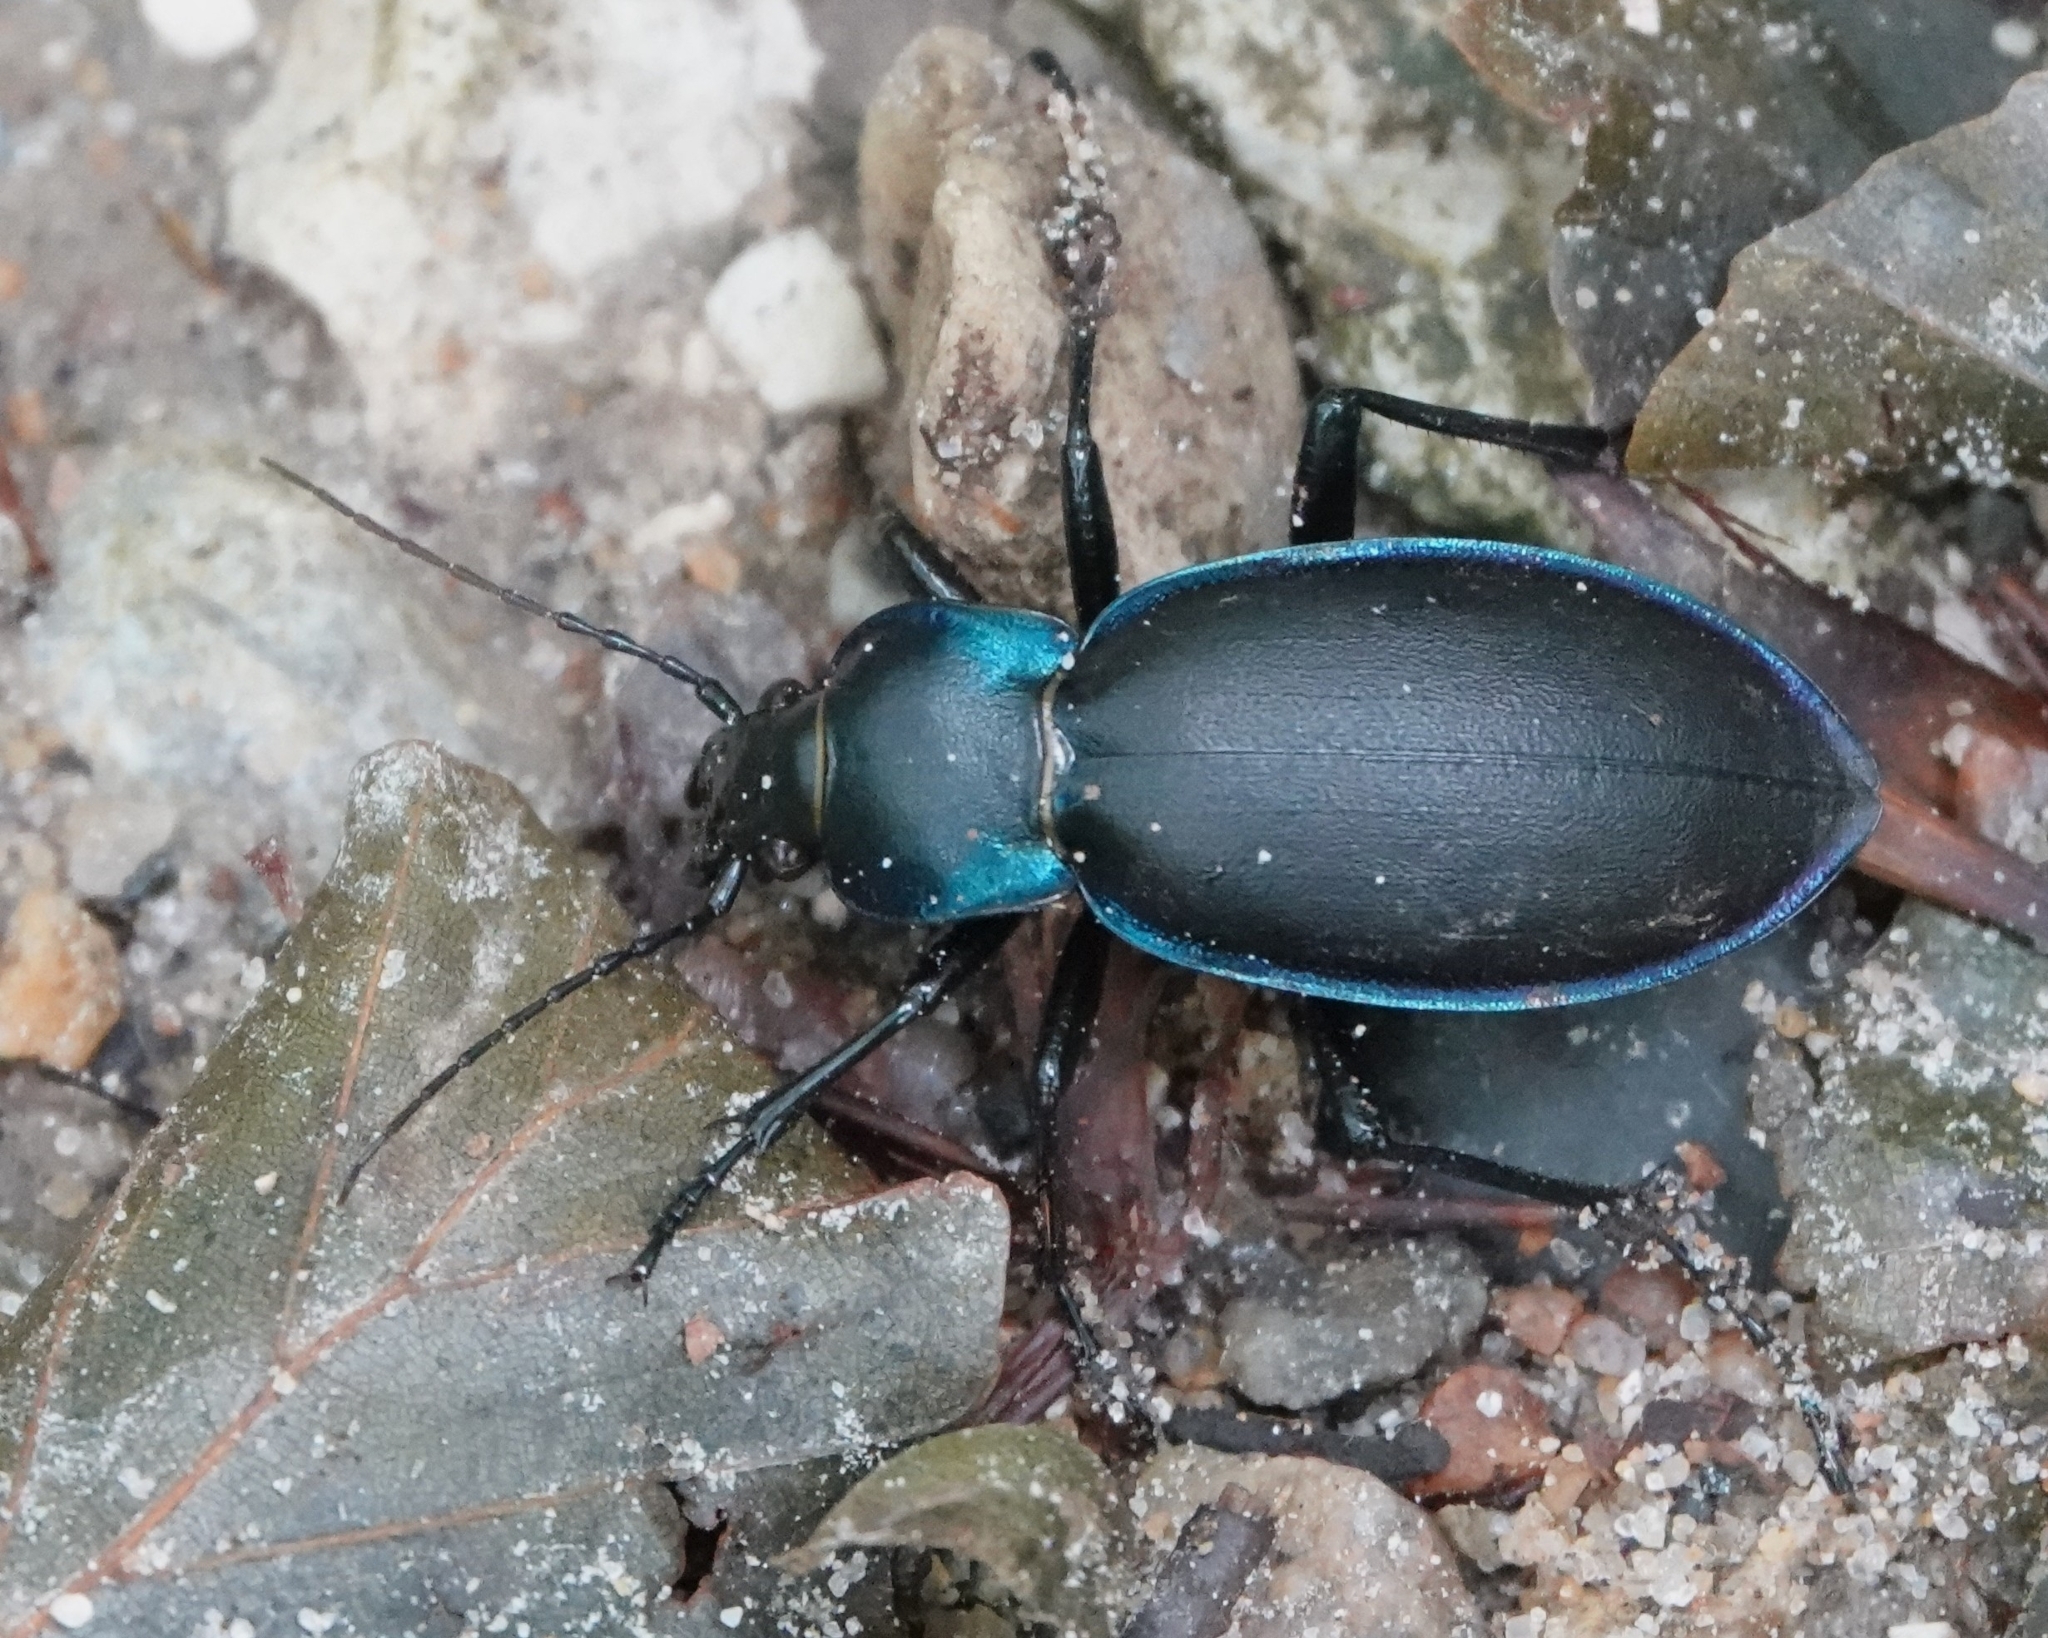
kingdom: Animalia
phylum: Arthropoda
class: Insecta
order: Coleoptera
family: Carabidae
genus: Carabus
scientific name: Carabus violaceus
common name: Violet ground beetle
